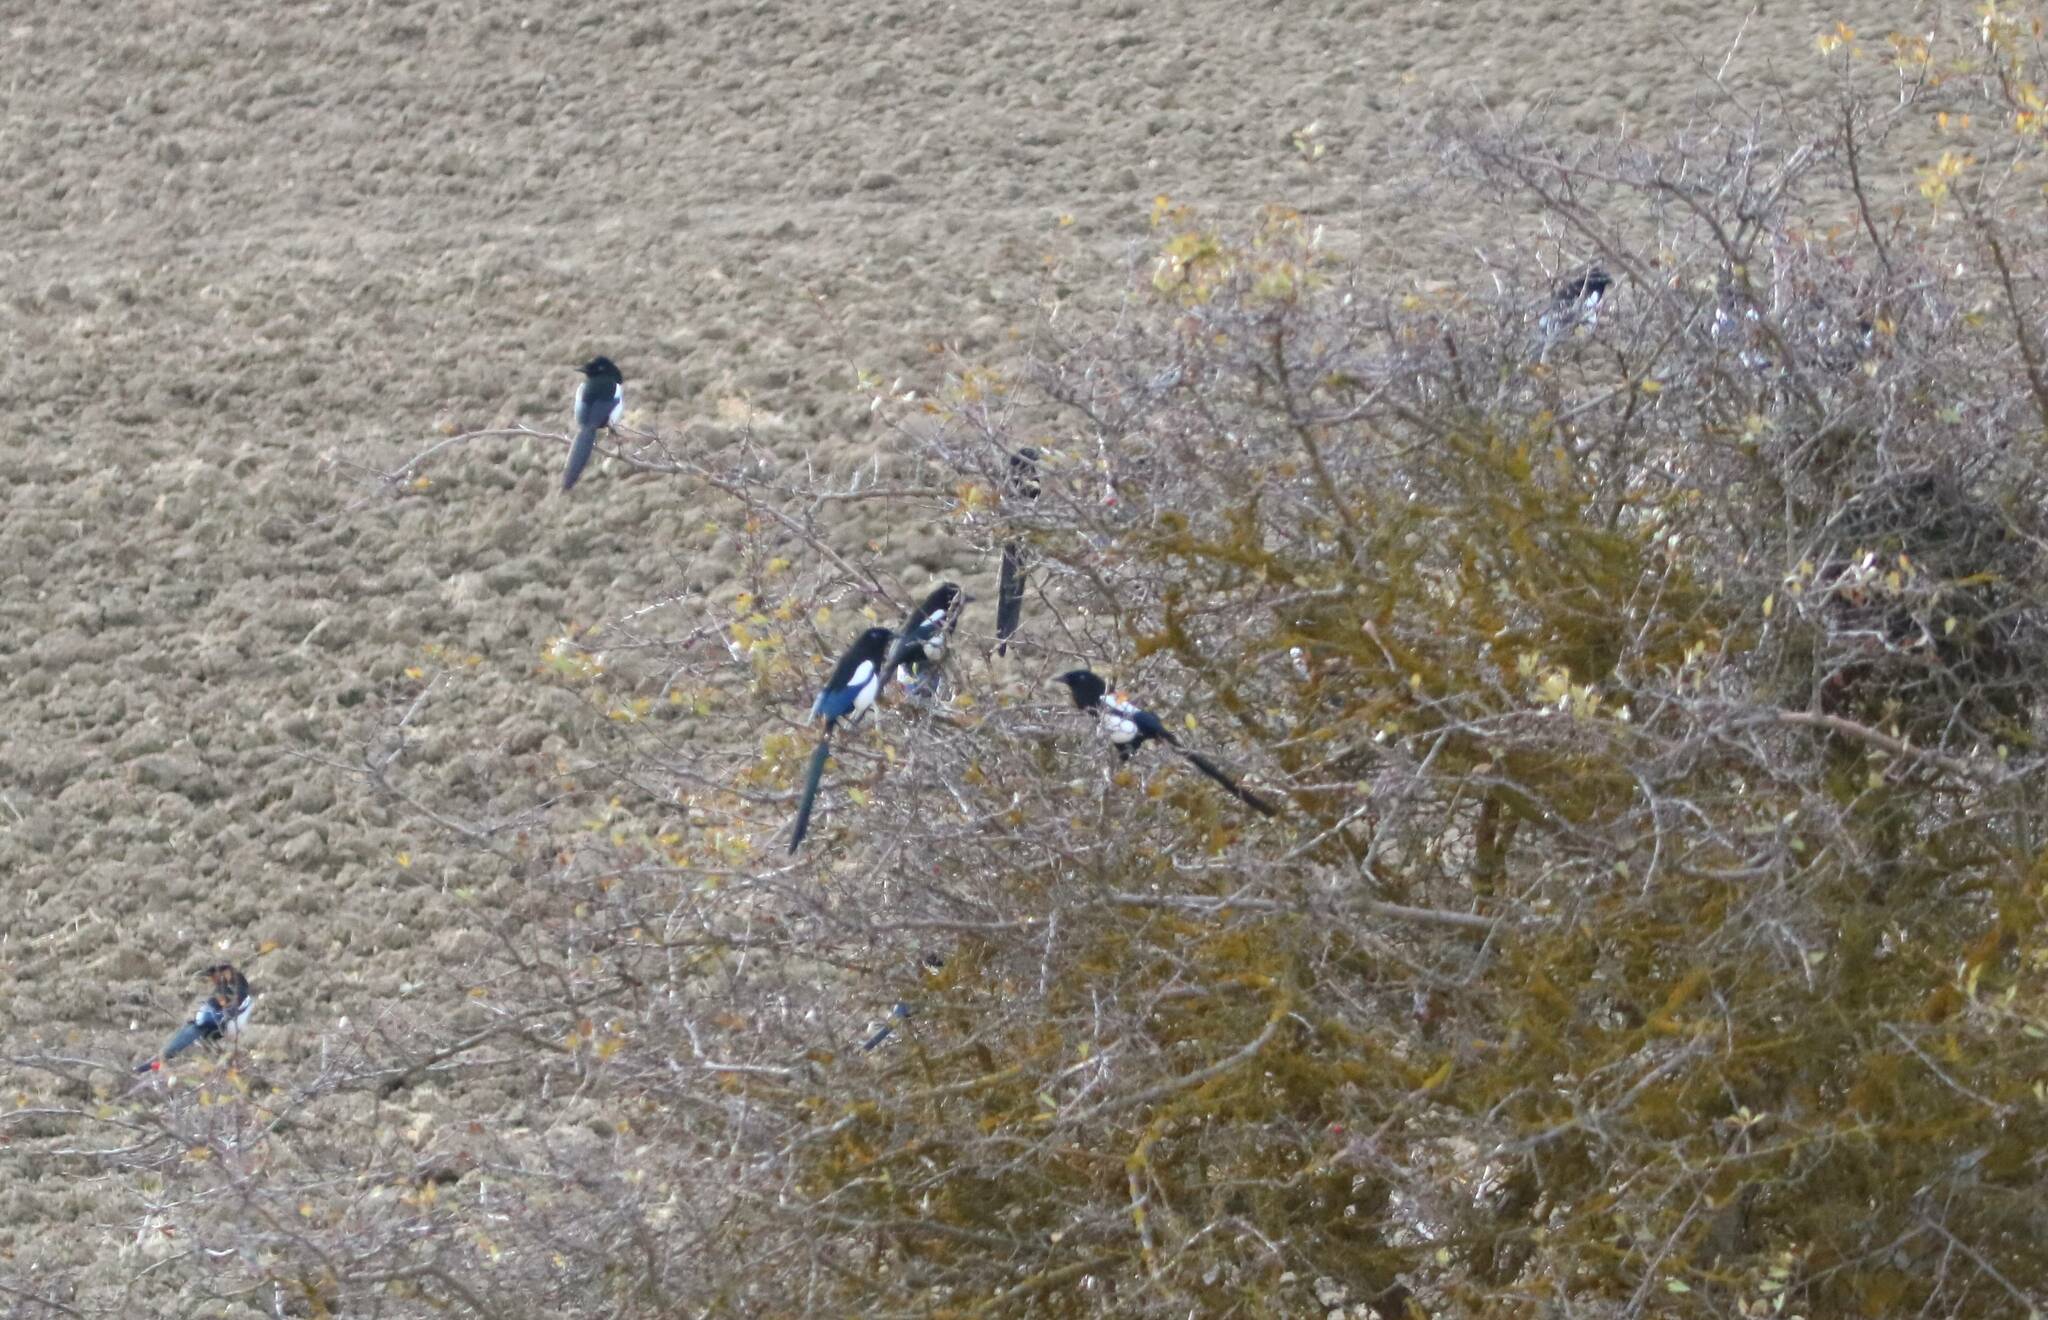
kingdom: Animalia
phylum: Chordata
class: Aves
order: Passeriformes
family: Corvidae
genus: Pica
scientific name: Pica mauritanica
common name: Maghreb magpie
